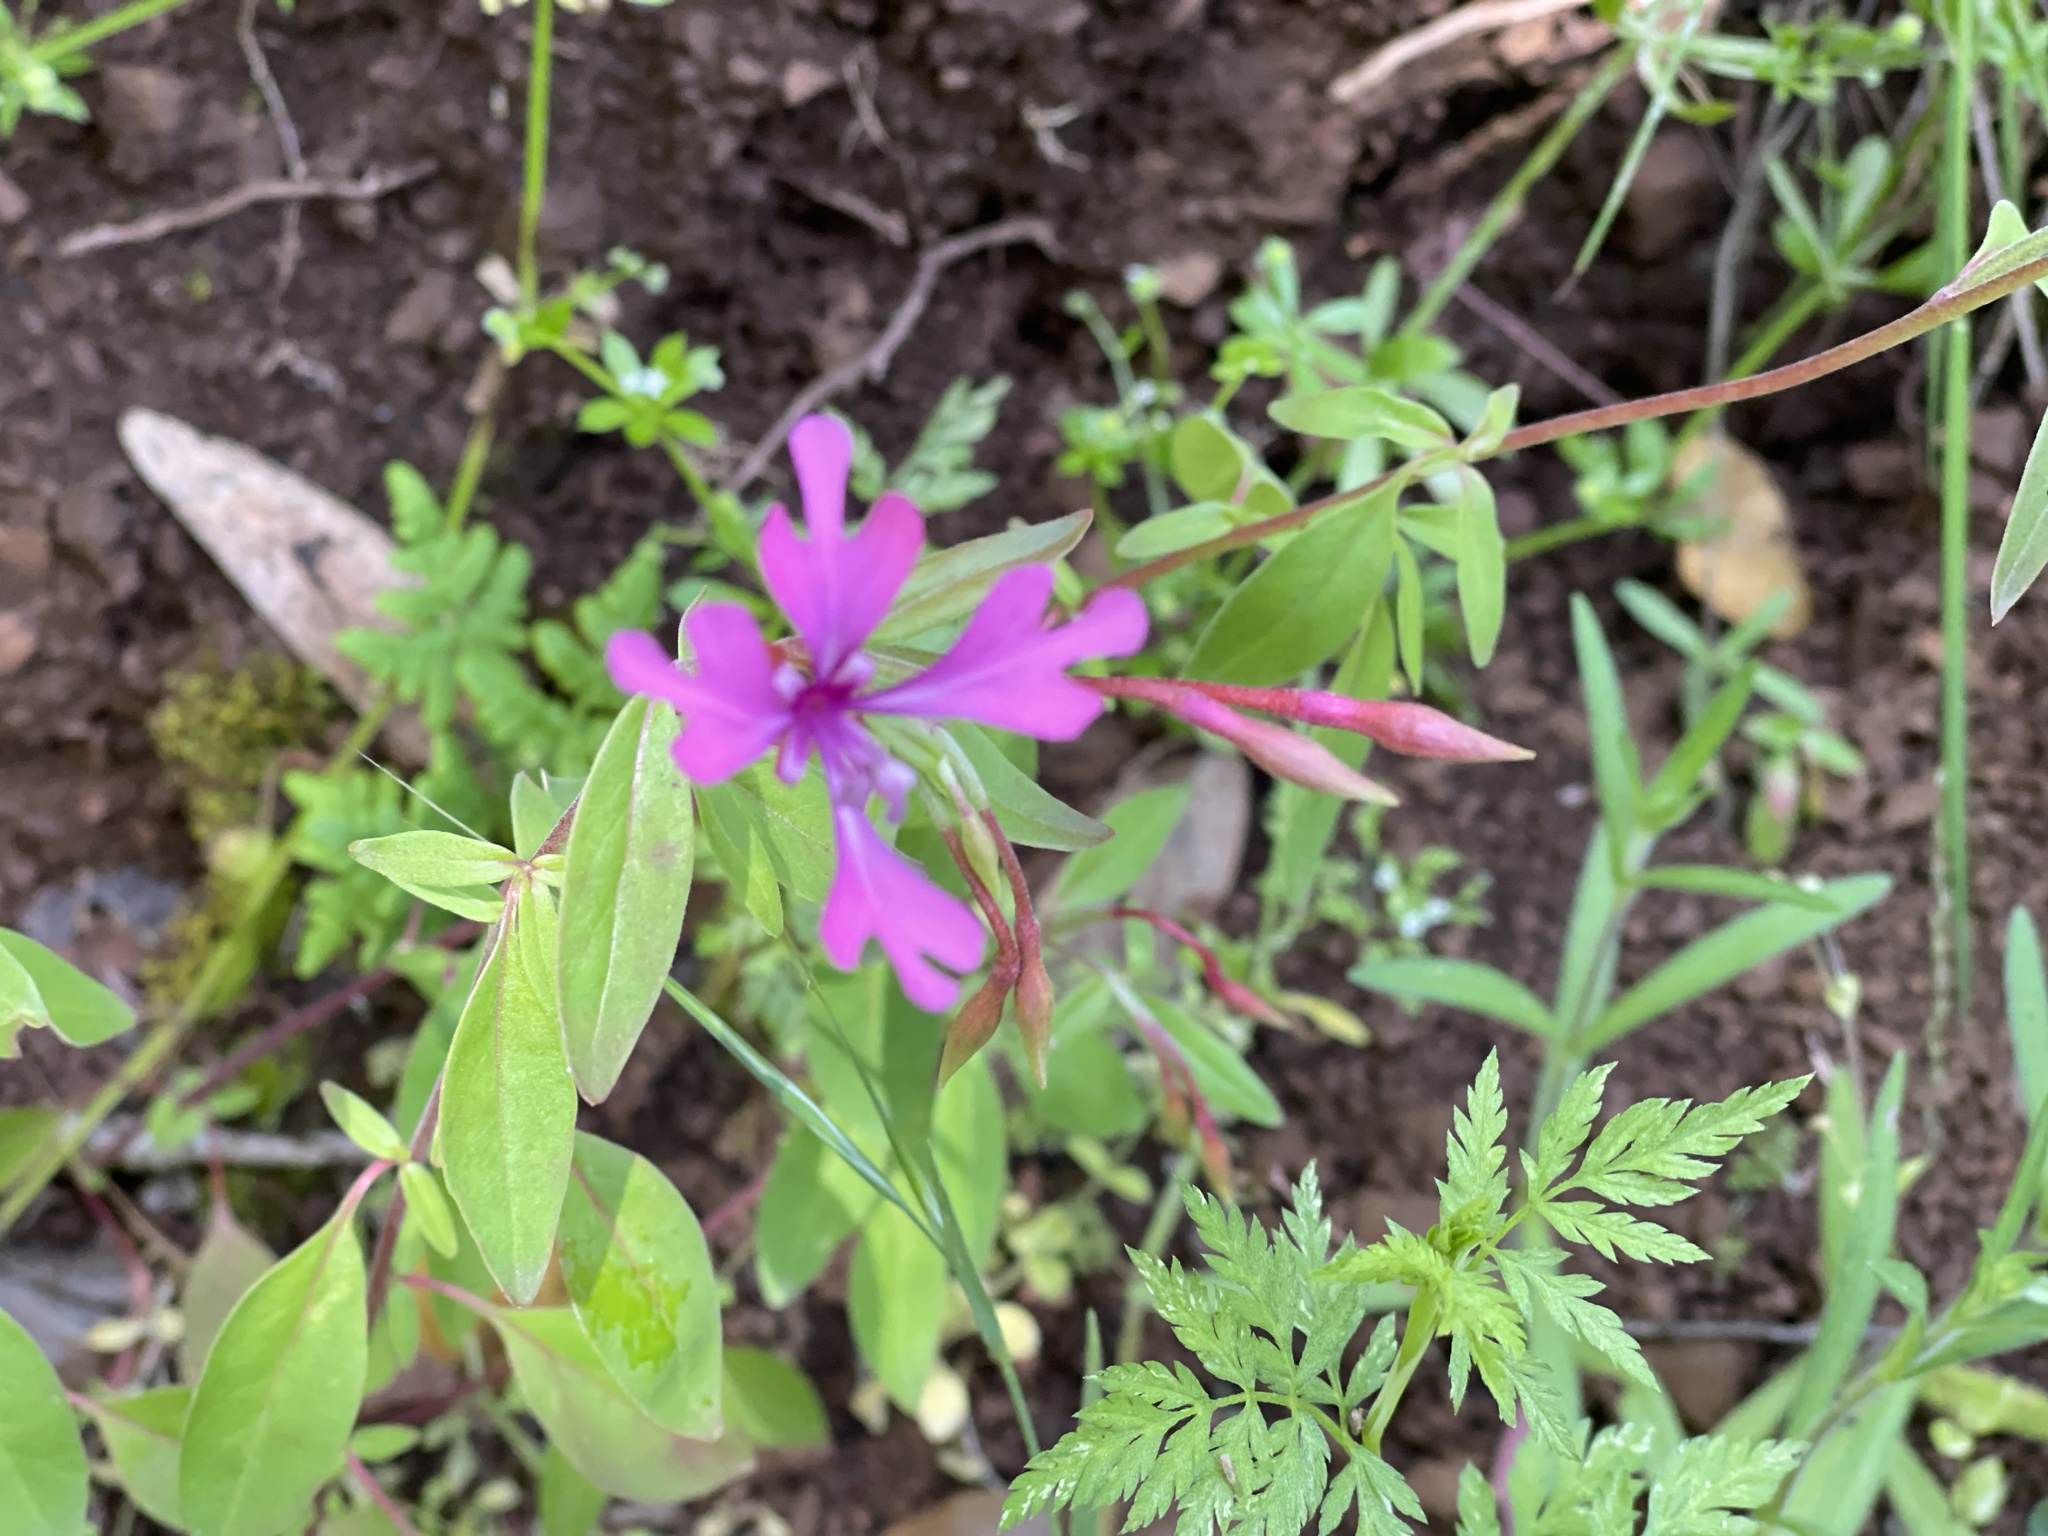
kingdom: Plantae
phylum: Tracheophyta
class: Magnoliopsida
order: Myrtales
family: Onagraceae
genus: Clarkia
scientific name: Clarkia concinna
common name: Red-ribbons
